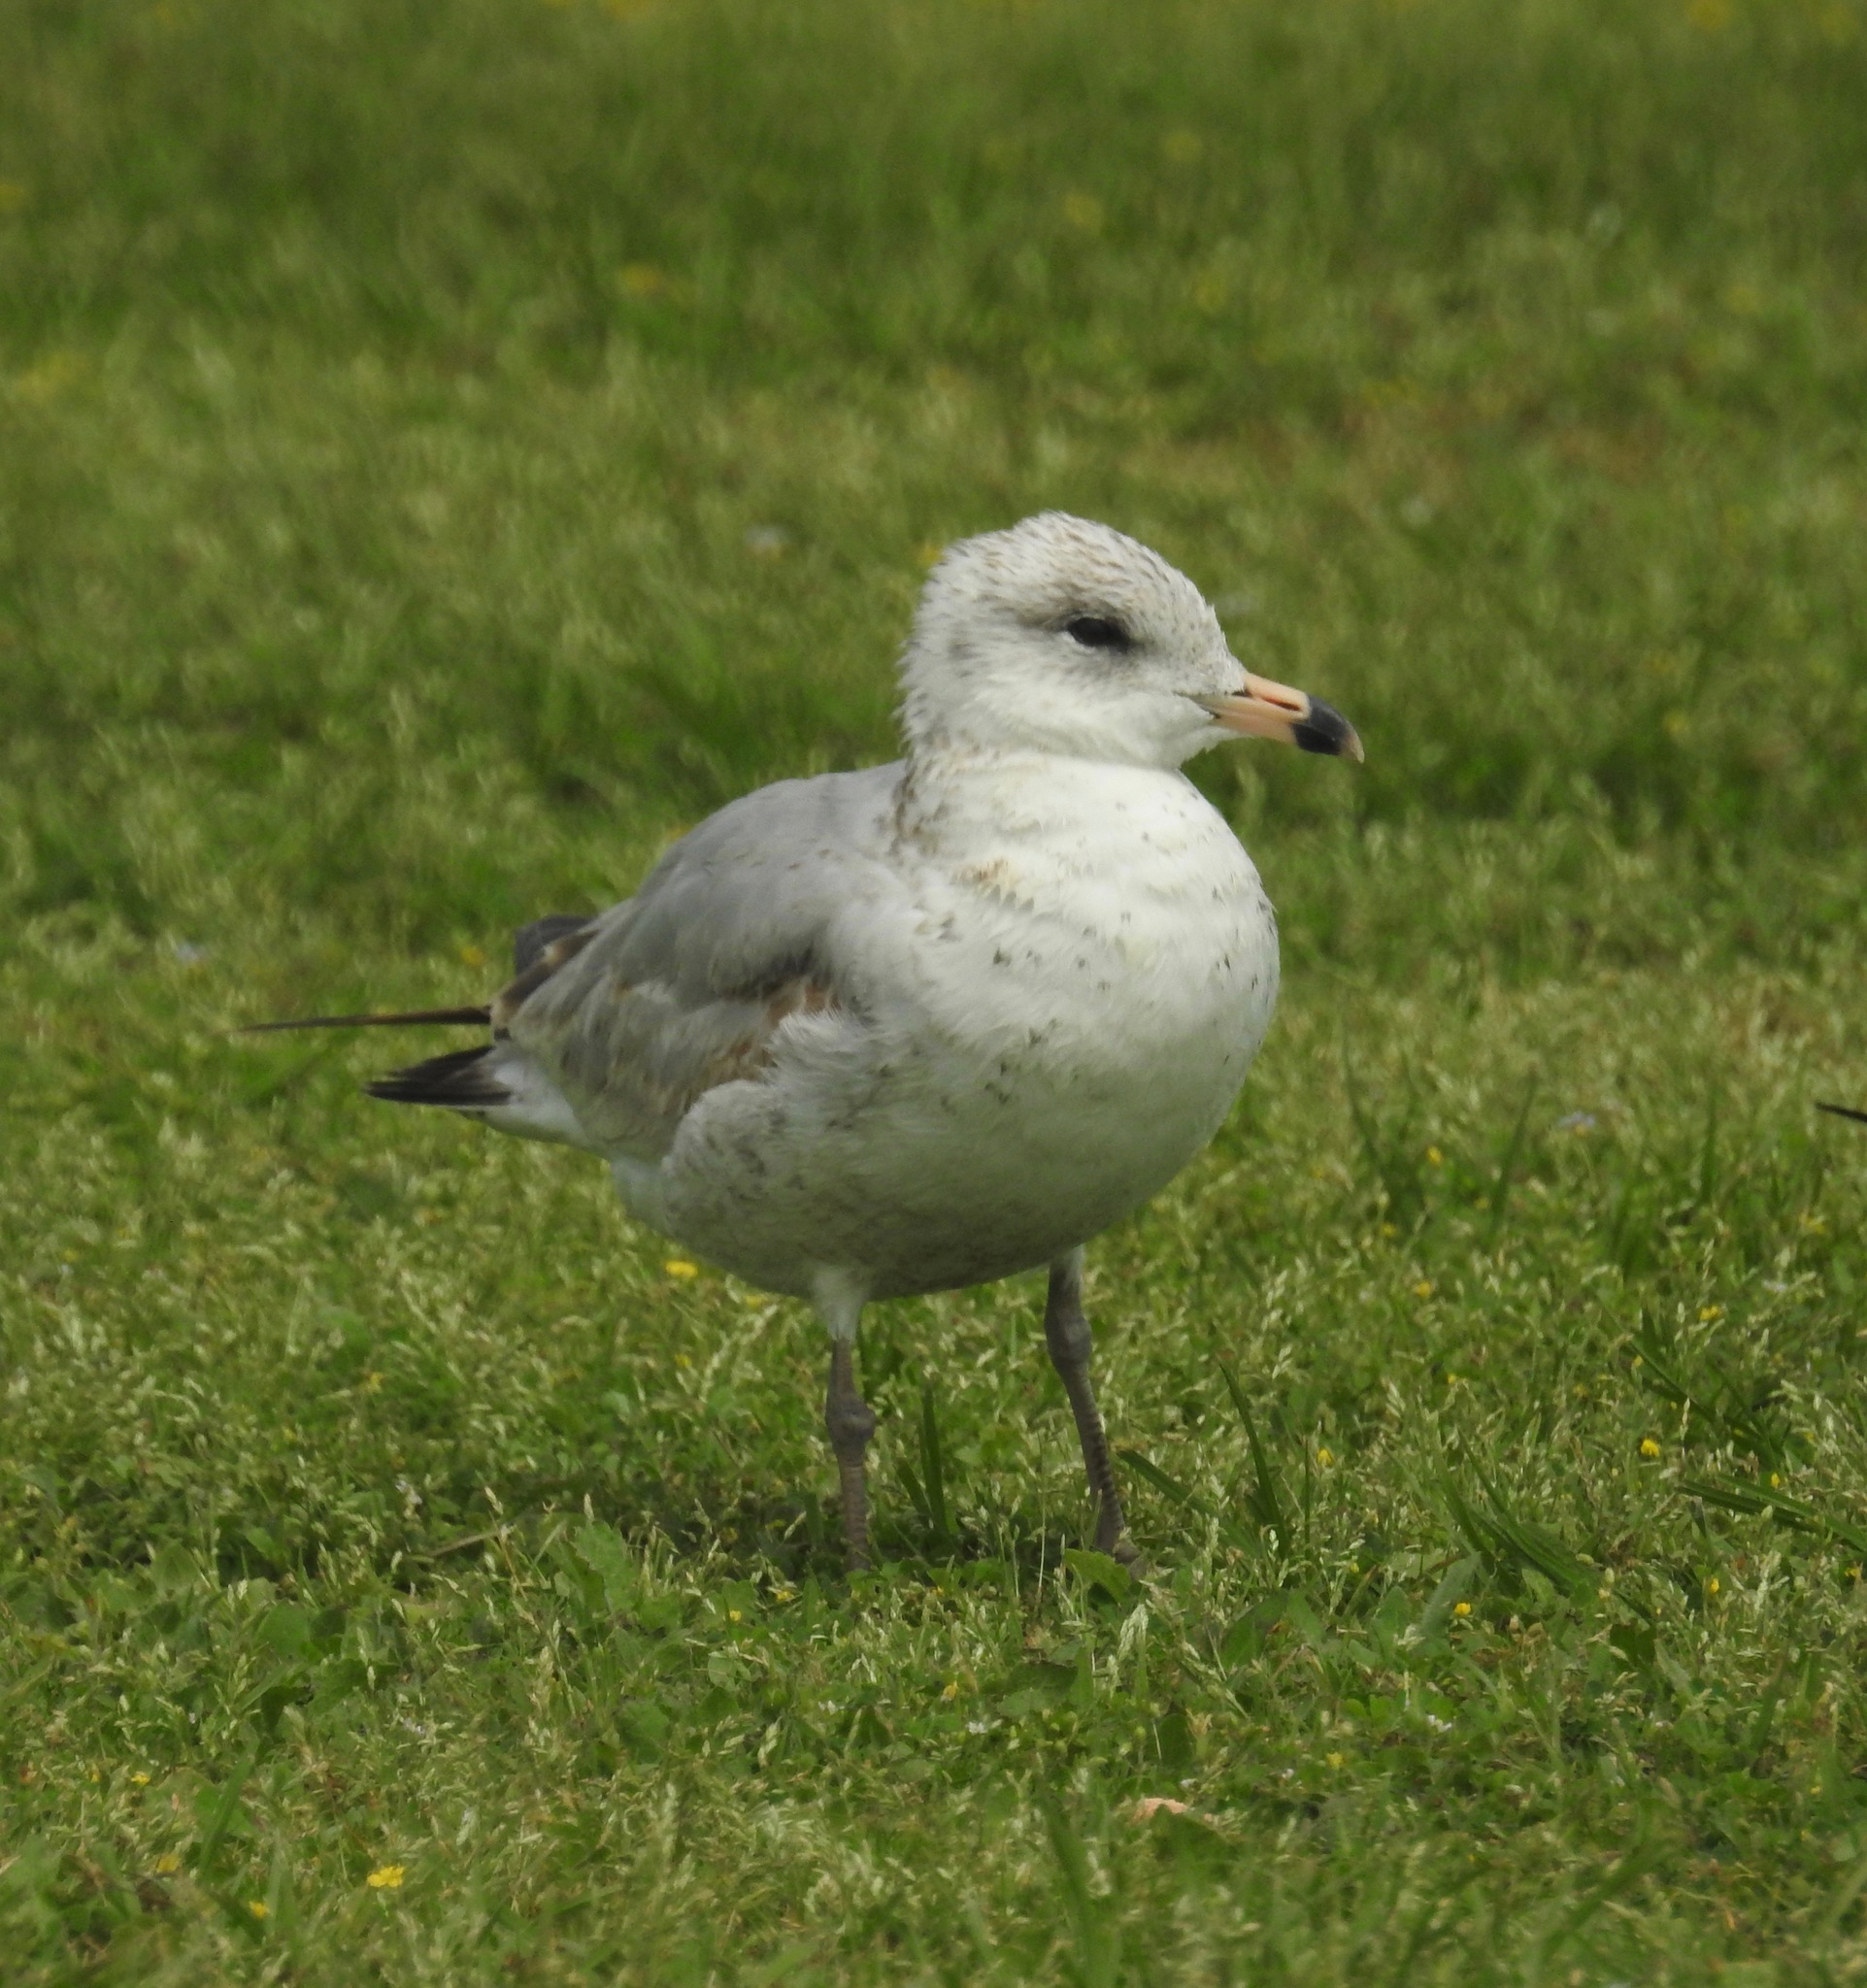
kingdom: Animalia
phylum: Chordata
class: Aves
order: Charadriiformes
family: Laridae
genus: Larus
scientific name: Larus delawarensis
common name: Ring-billed gull
